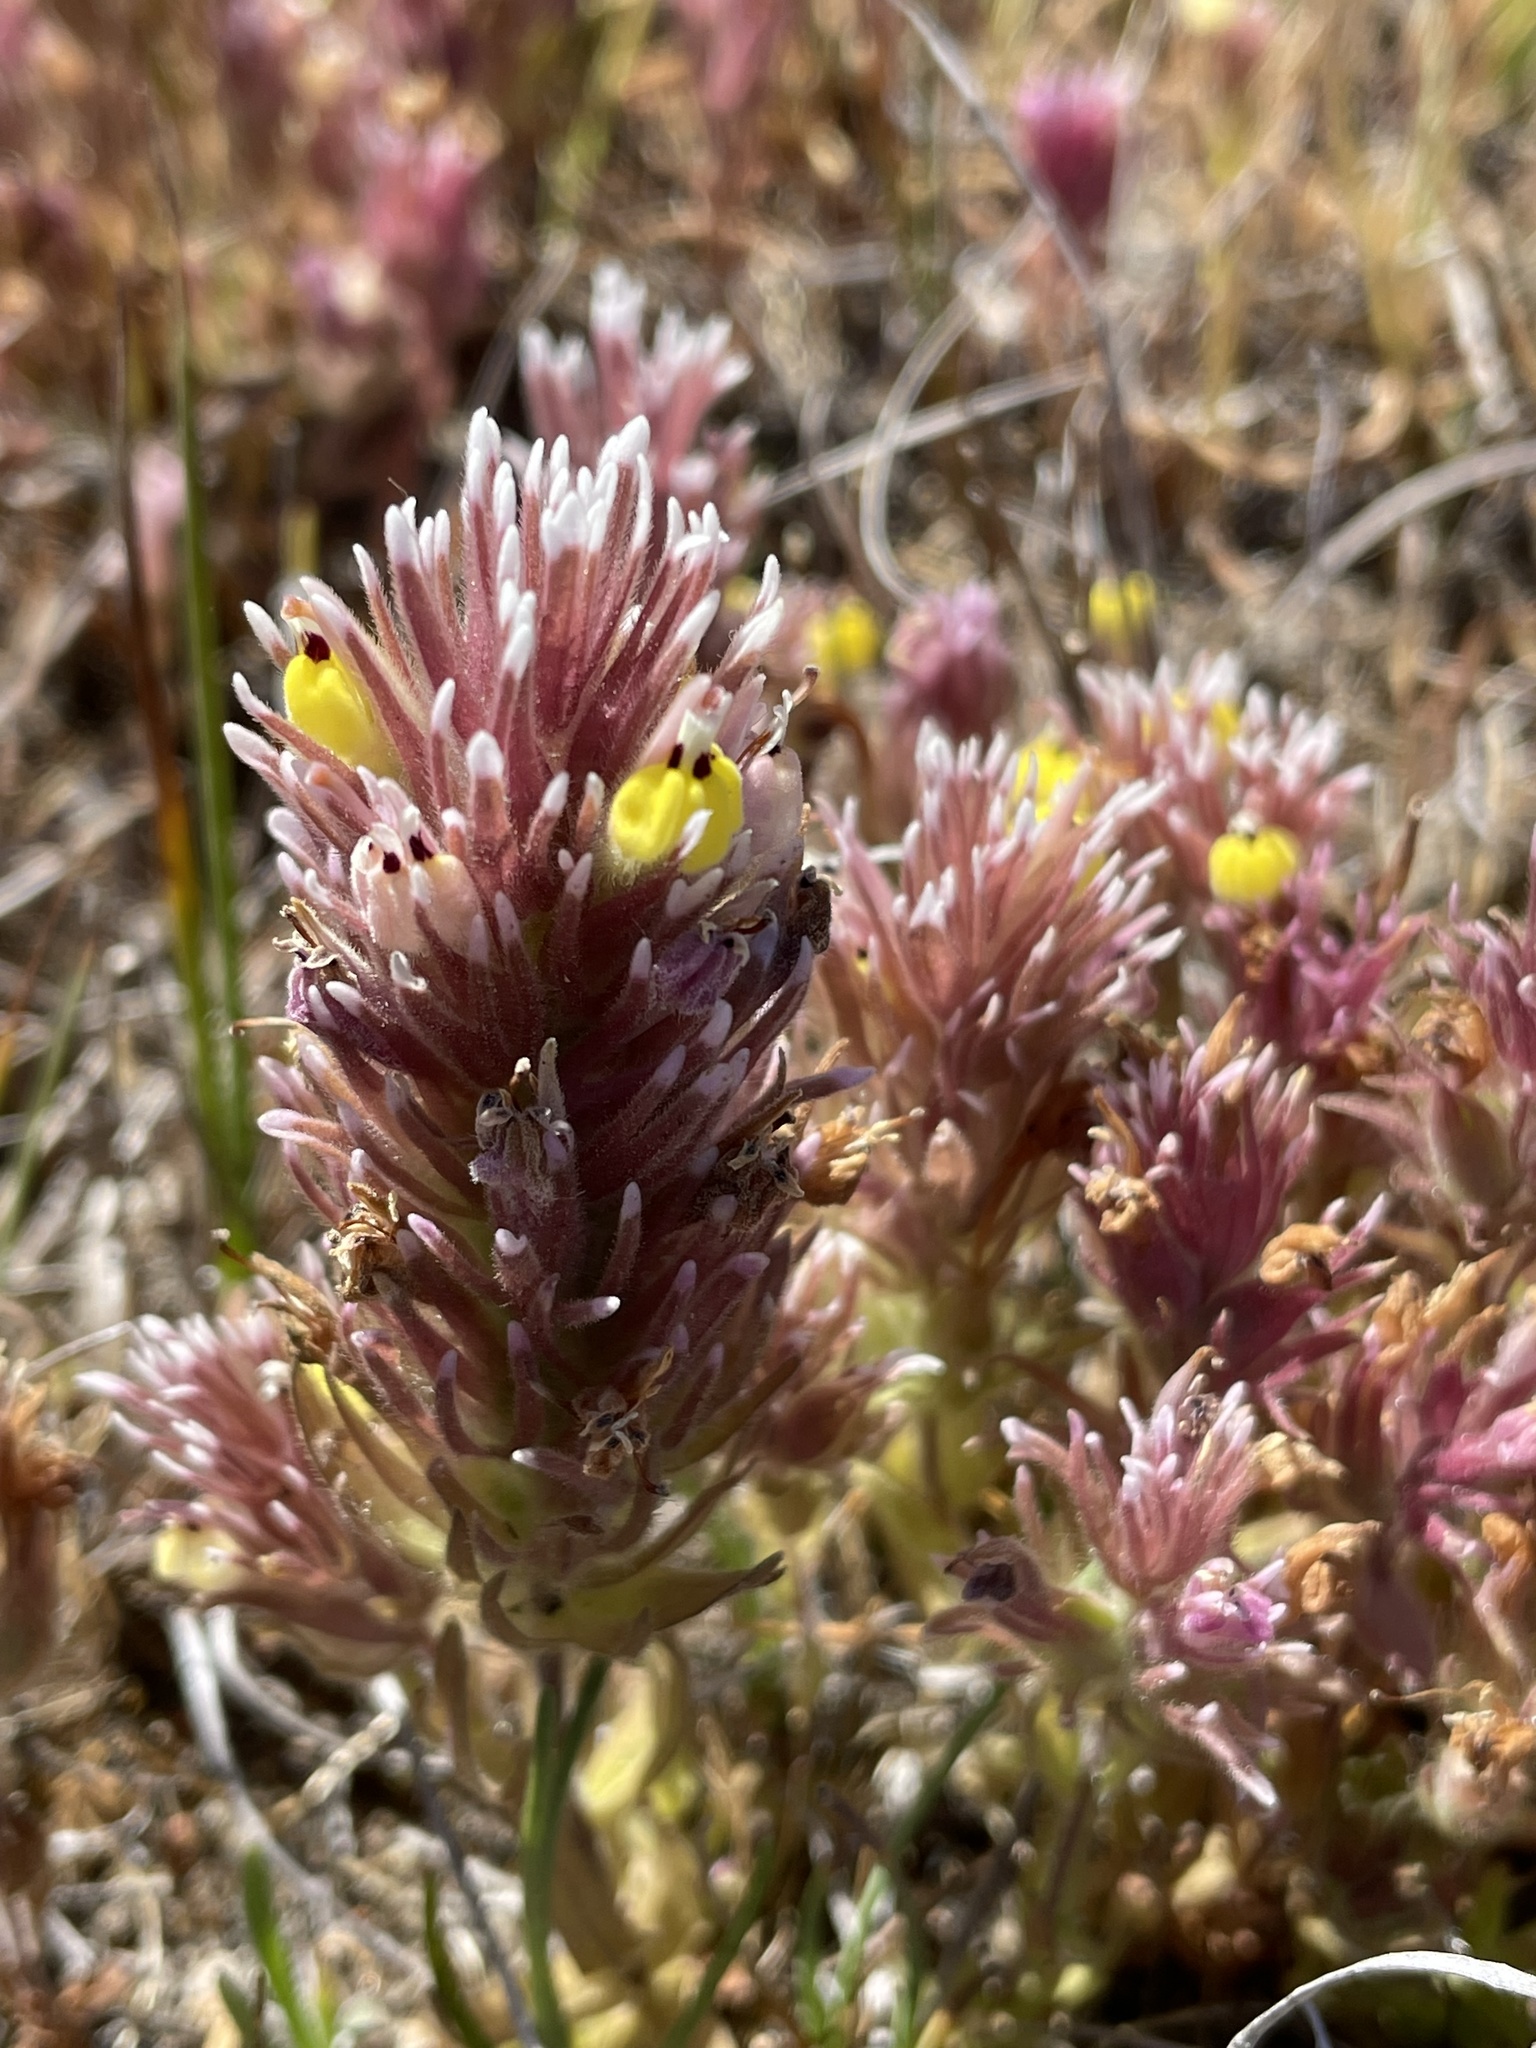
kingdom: Plantae
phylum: Tracheophyta
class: Magnoliopsida
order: Lamiales
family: Orobanchaceae
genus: Castilleja
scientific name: Castilleja ambigua
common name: Johnny-nip
